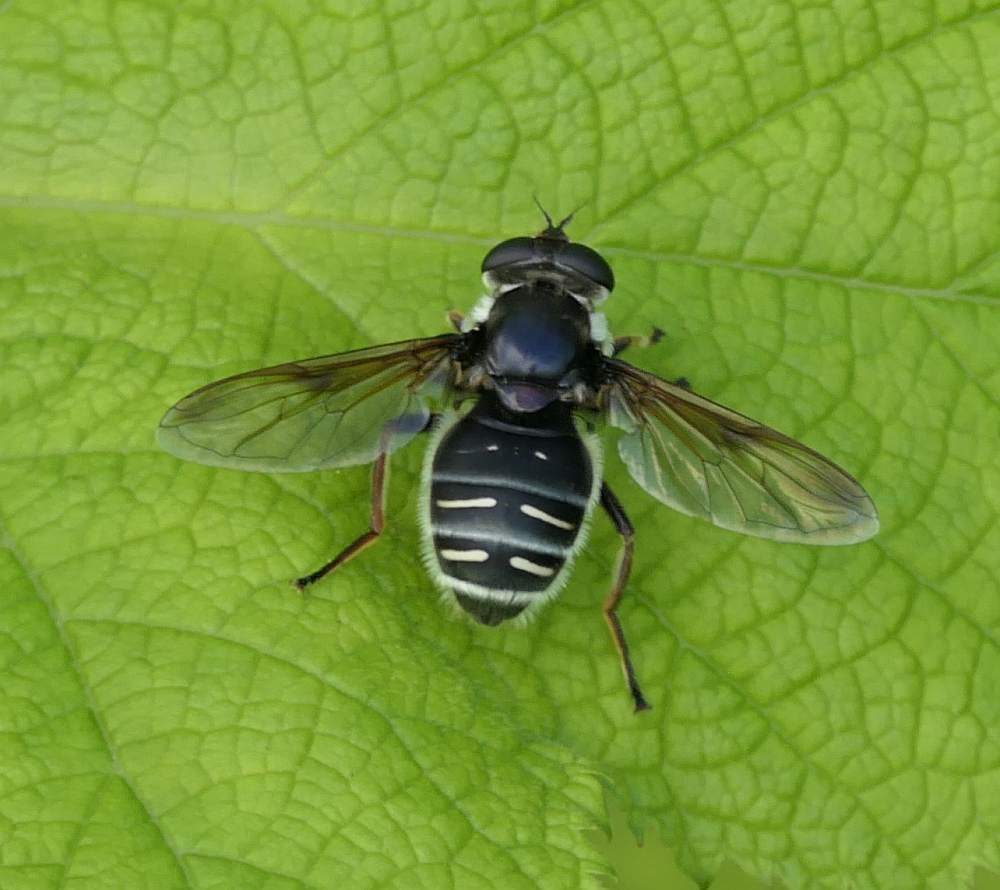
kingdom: Animalia
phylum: Arthropoda
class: Insecta
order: Diptera
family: Syrphidae
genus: Sericomyia
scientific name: Sericomyia militaris
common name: Narrow-banded pond fly
